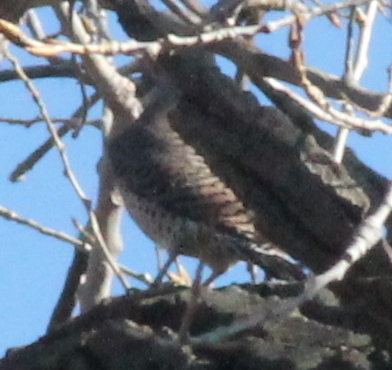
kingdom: Animalia
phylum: Chordata
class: Aves
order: Piciformes
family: Picidae
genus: Colaptes
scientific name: Colaptes auratus
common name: Northern flicker
